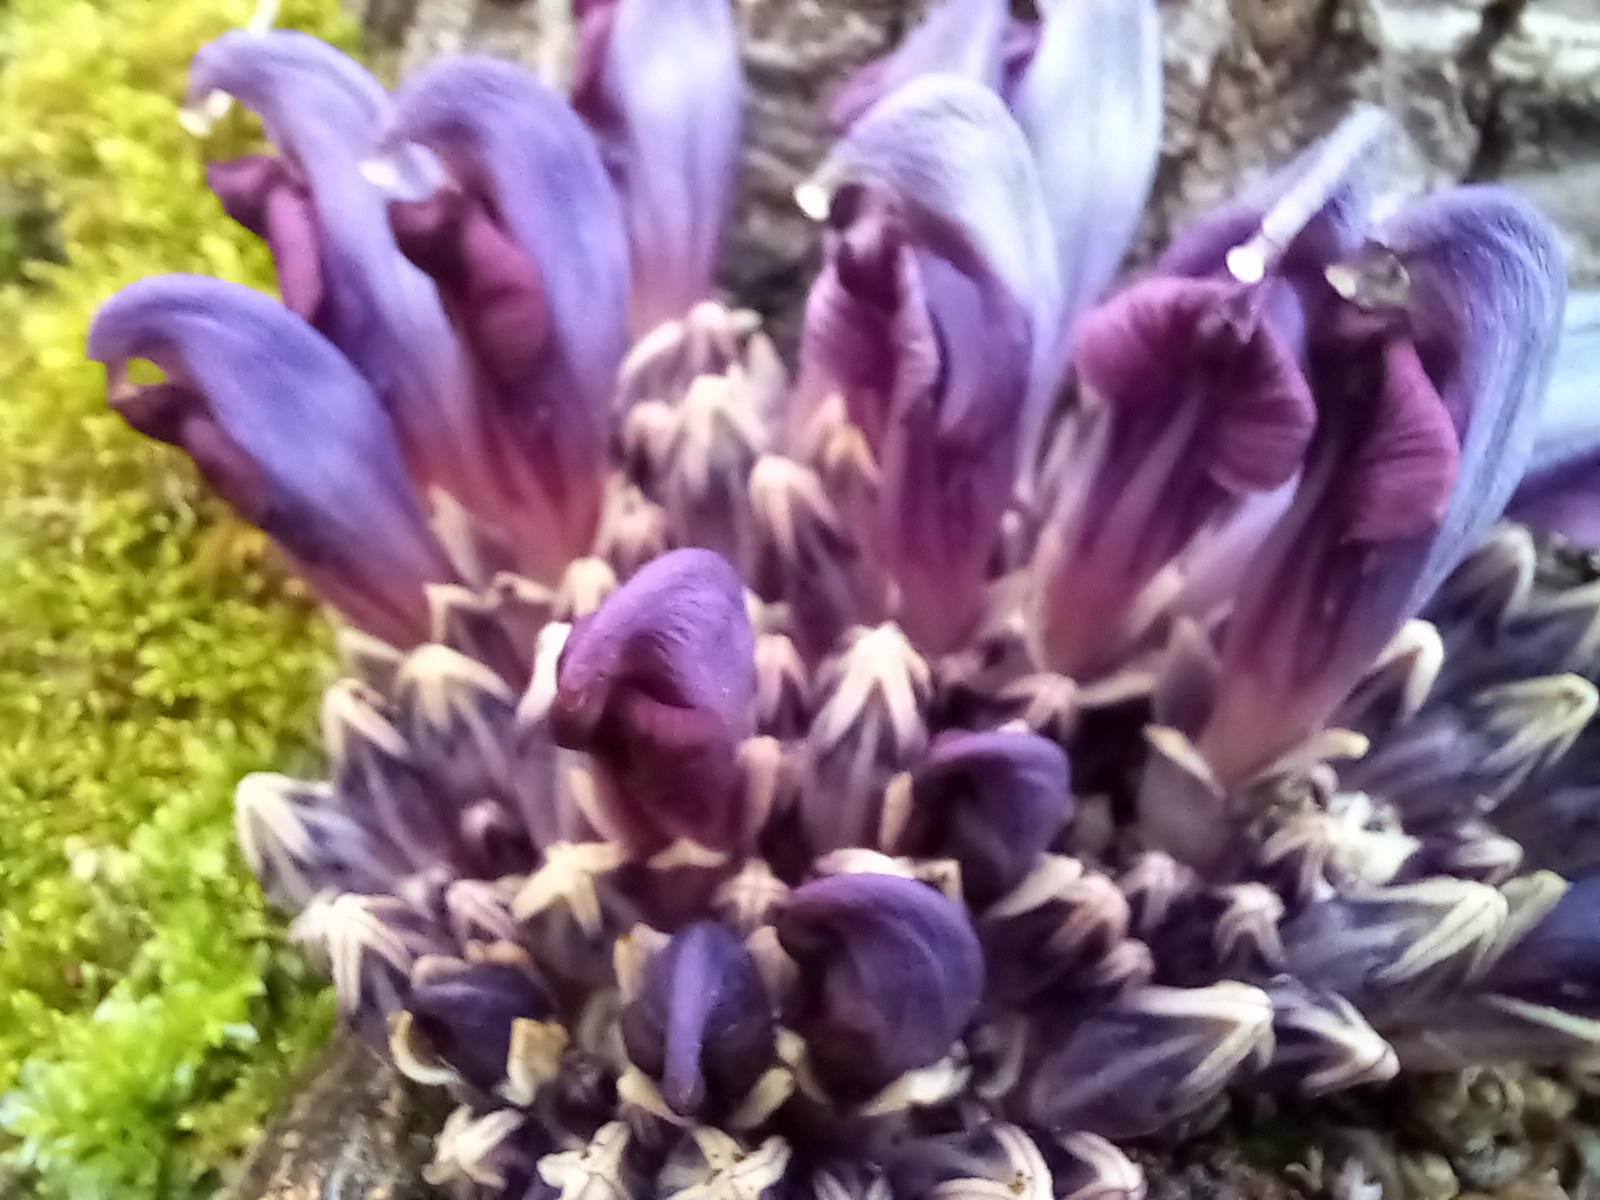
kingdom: Plantae
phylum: Tracheophyta
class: Magnoliopsida
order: Lamiales
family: Orobanchaceae
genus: Lathraea
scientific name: Lathraea clandestina
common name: Purple toothwort
